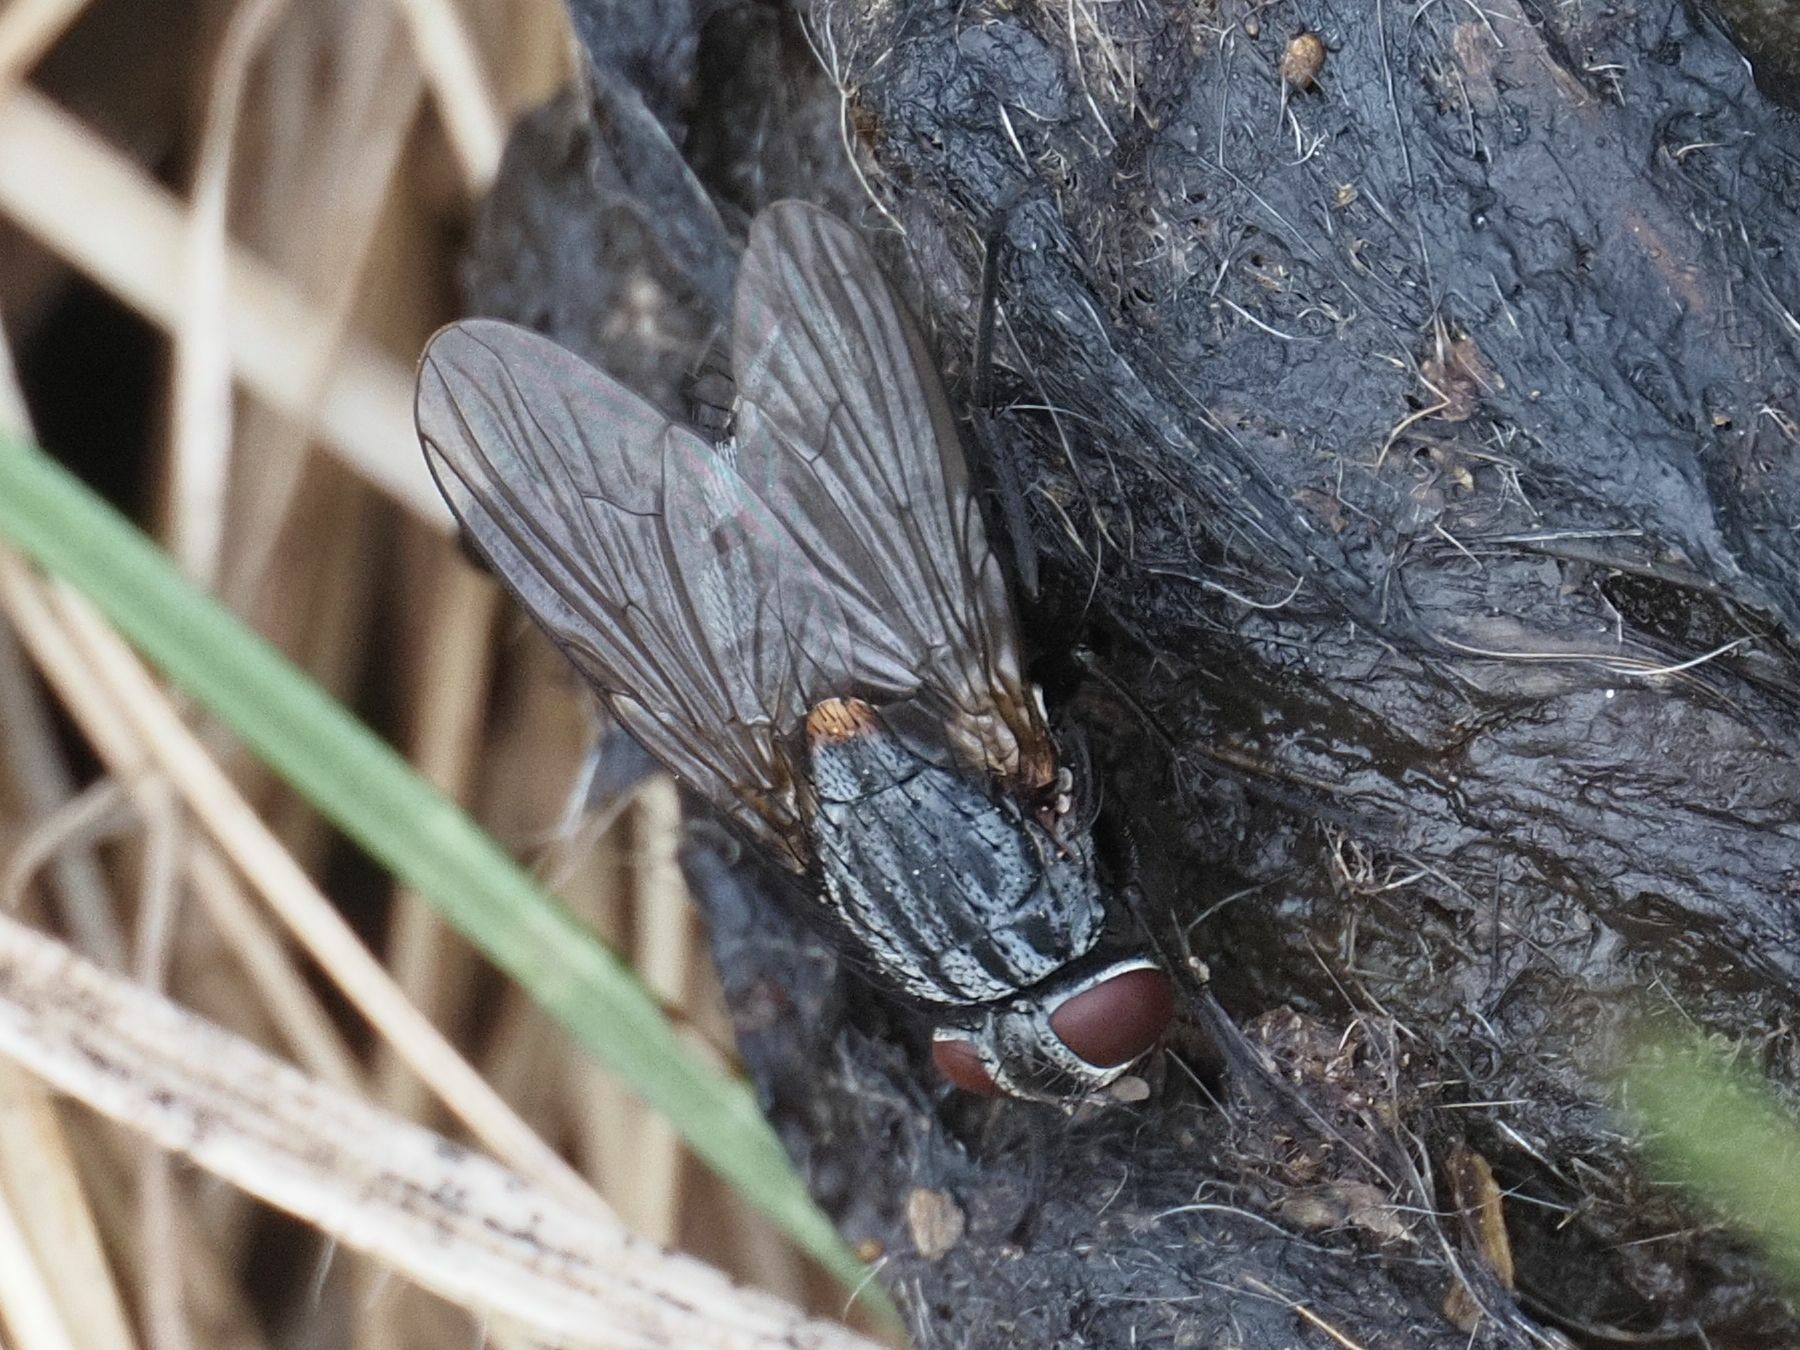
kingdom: Animalia
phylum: Arthropoda
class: Insecta
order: Diptera
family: Muscidae
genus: Muscina
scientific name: Muscina levida
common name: House fly
